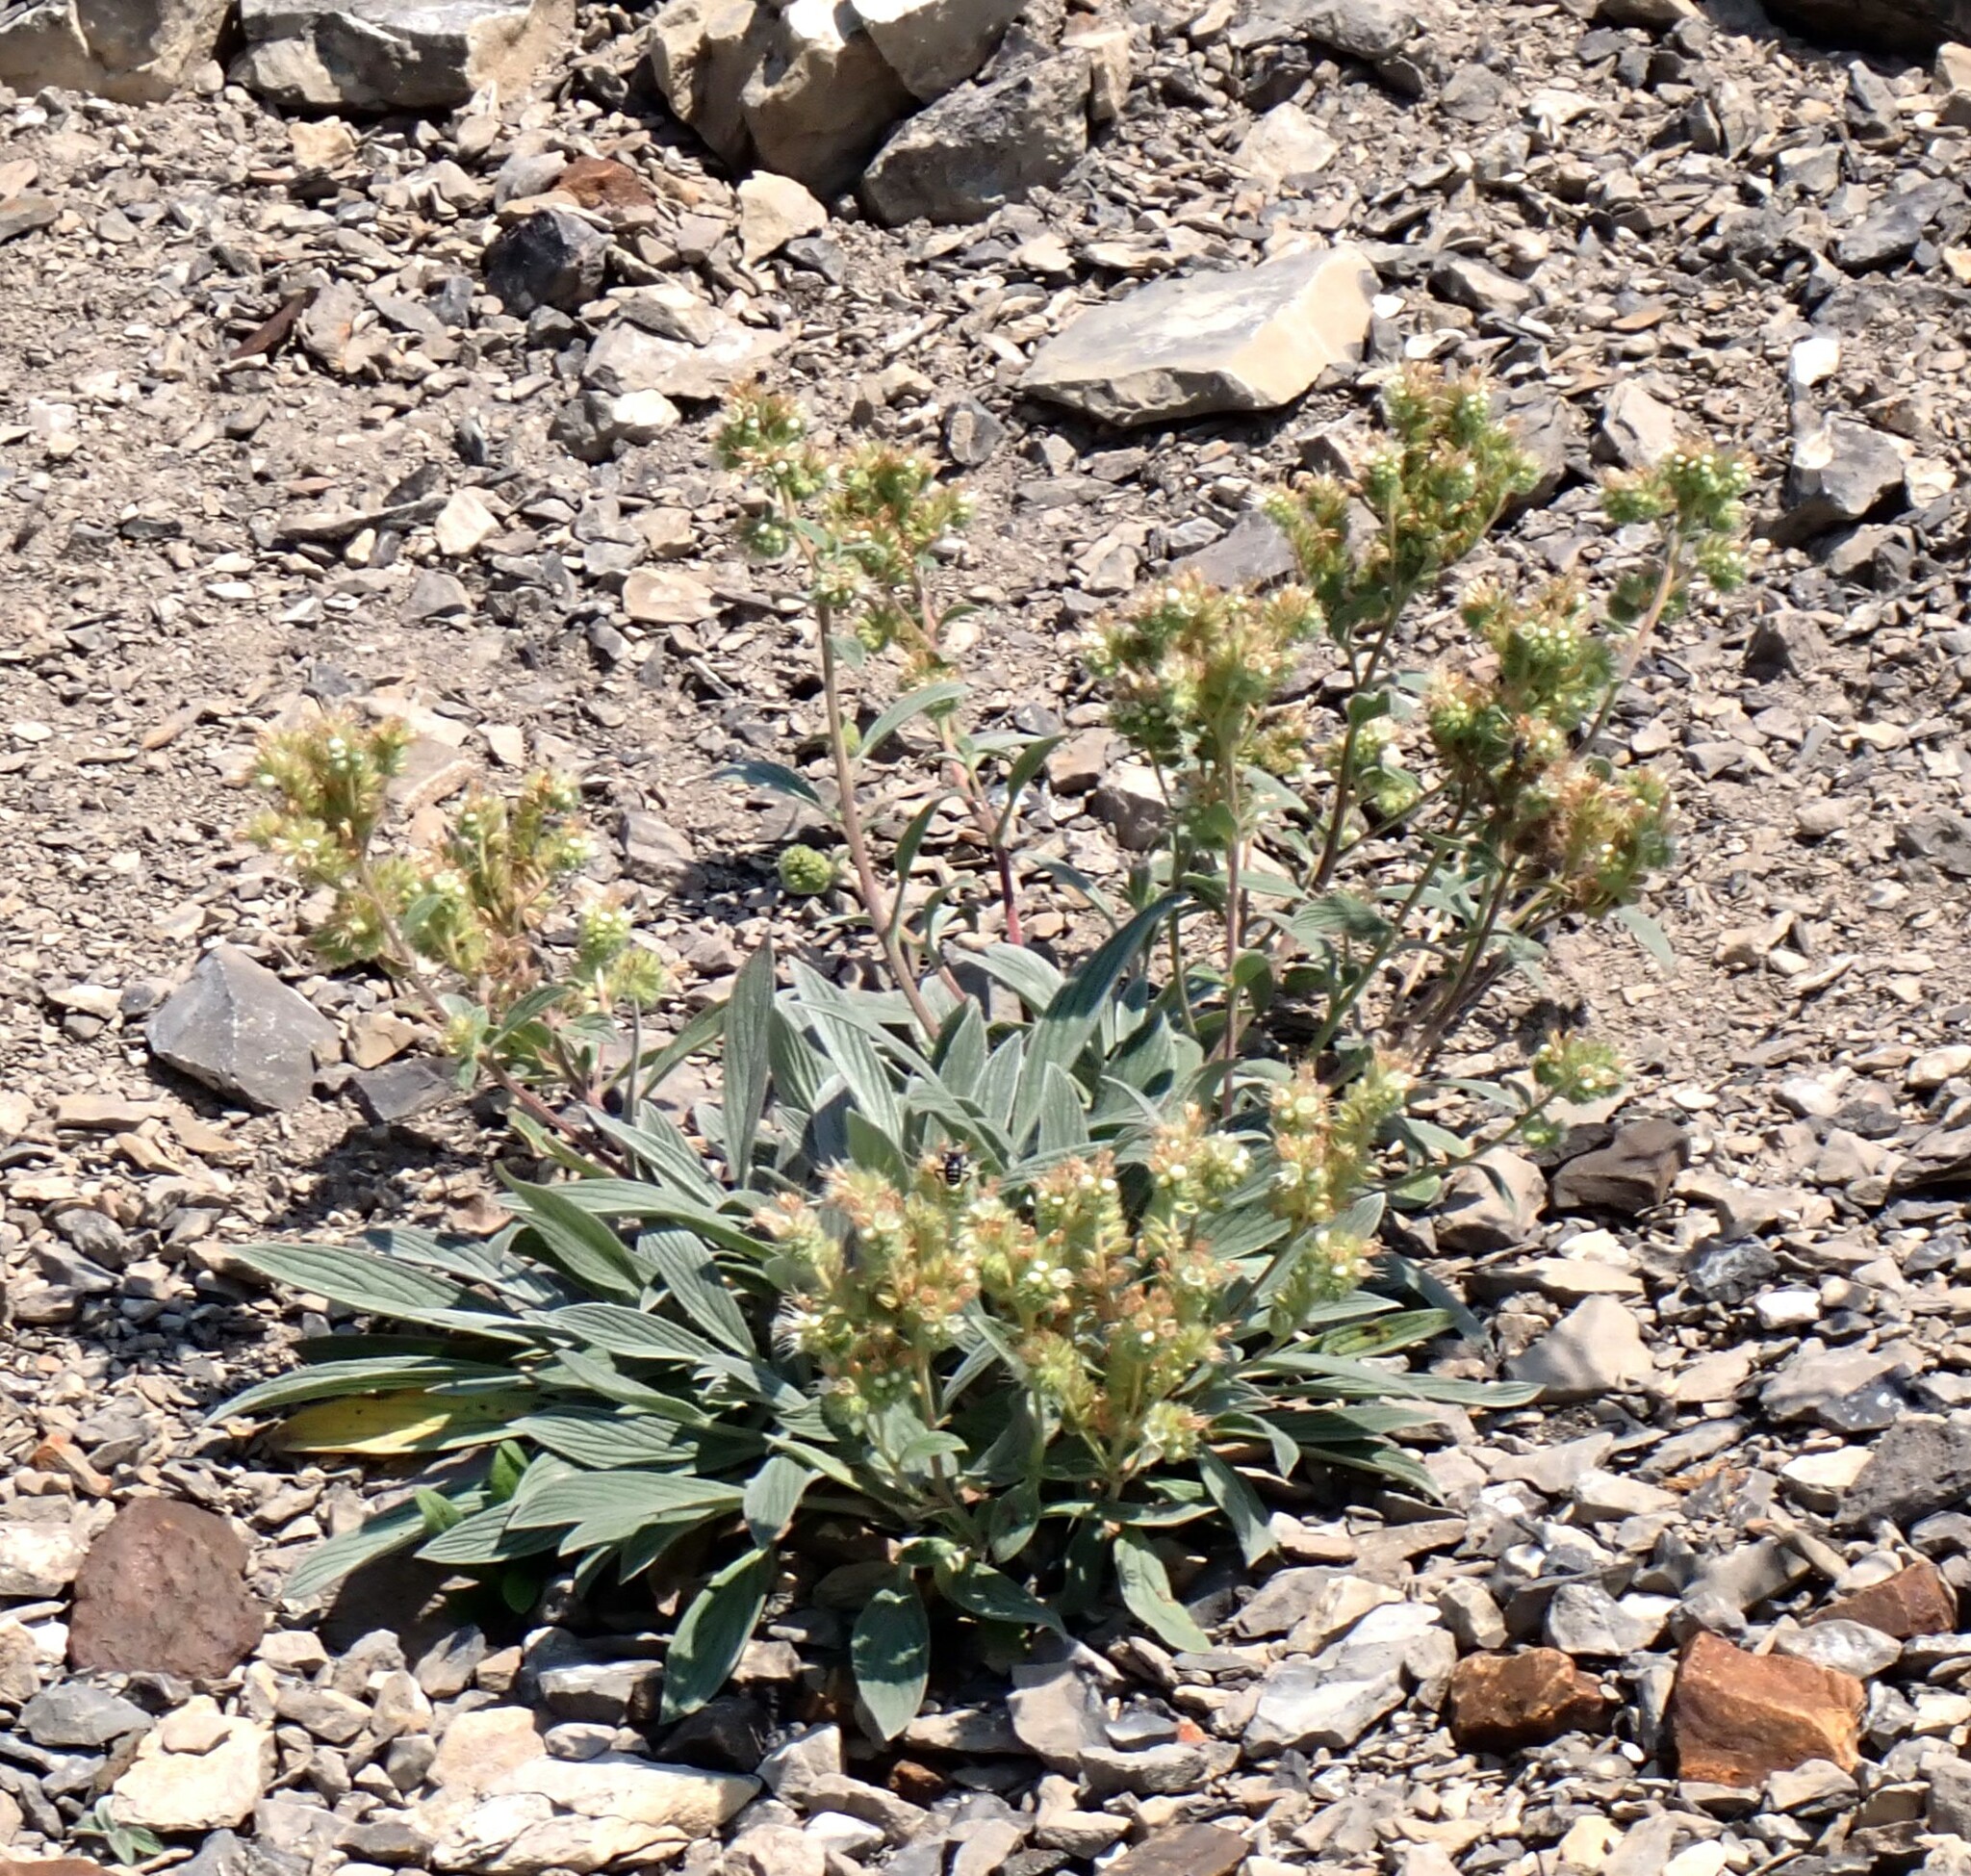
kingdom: Plantae
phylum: Tracheophyta
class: Magnoliopsida
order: Boraginales
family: Hydrophyllaceae
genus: Phacelia
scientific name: Phacelia hastata
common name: Silver-leaved phacelia
